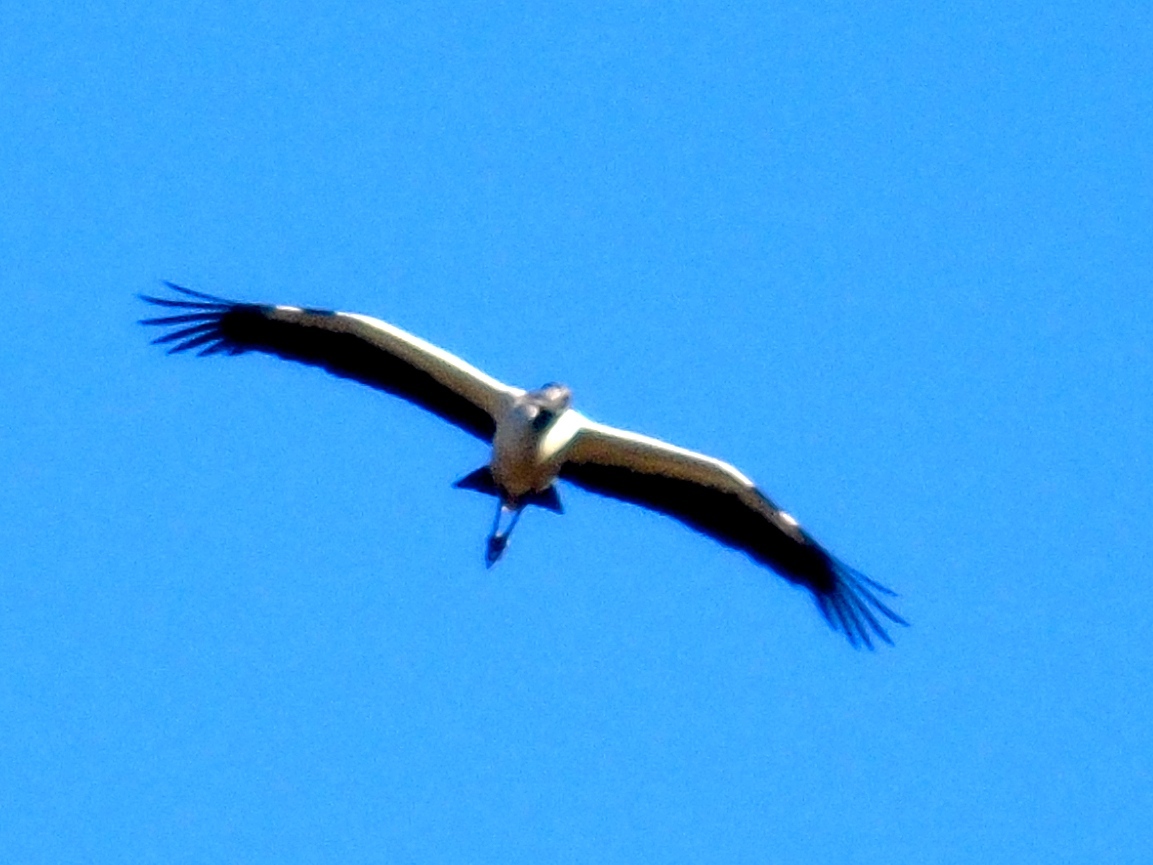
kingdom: Animalia
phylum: Chordata
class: Aves
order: Ciconiiformes
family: Ciconiidae
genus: Mycteria
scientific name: Mycteria americana
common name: Wood stork
